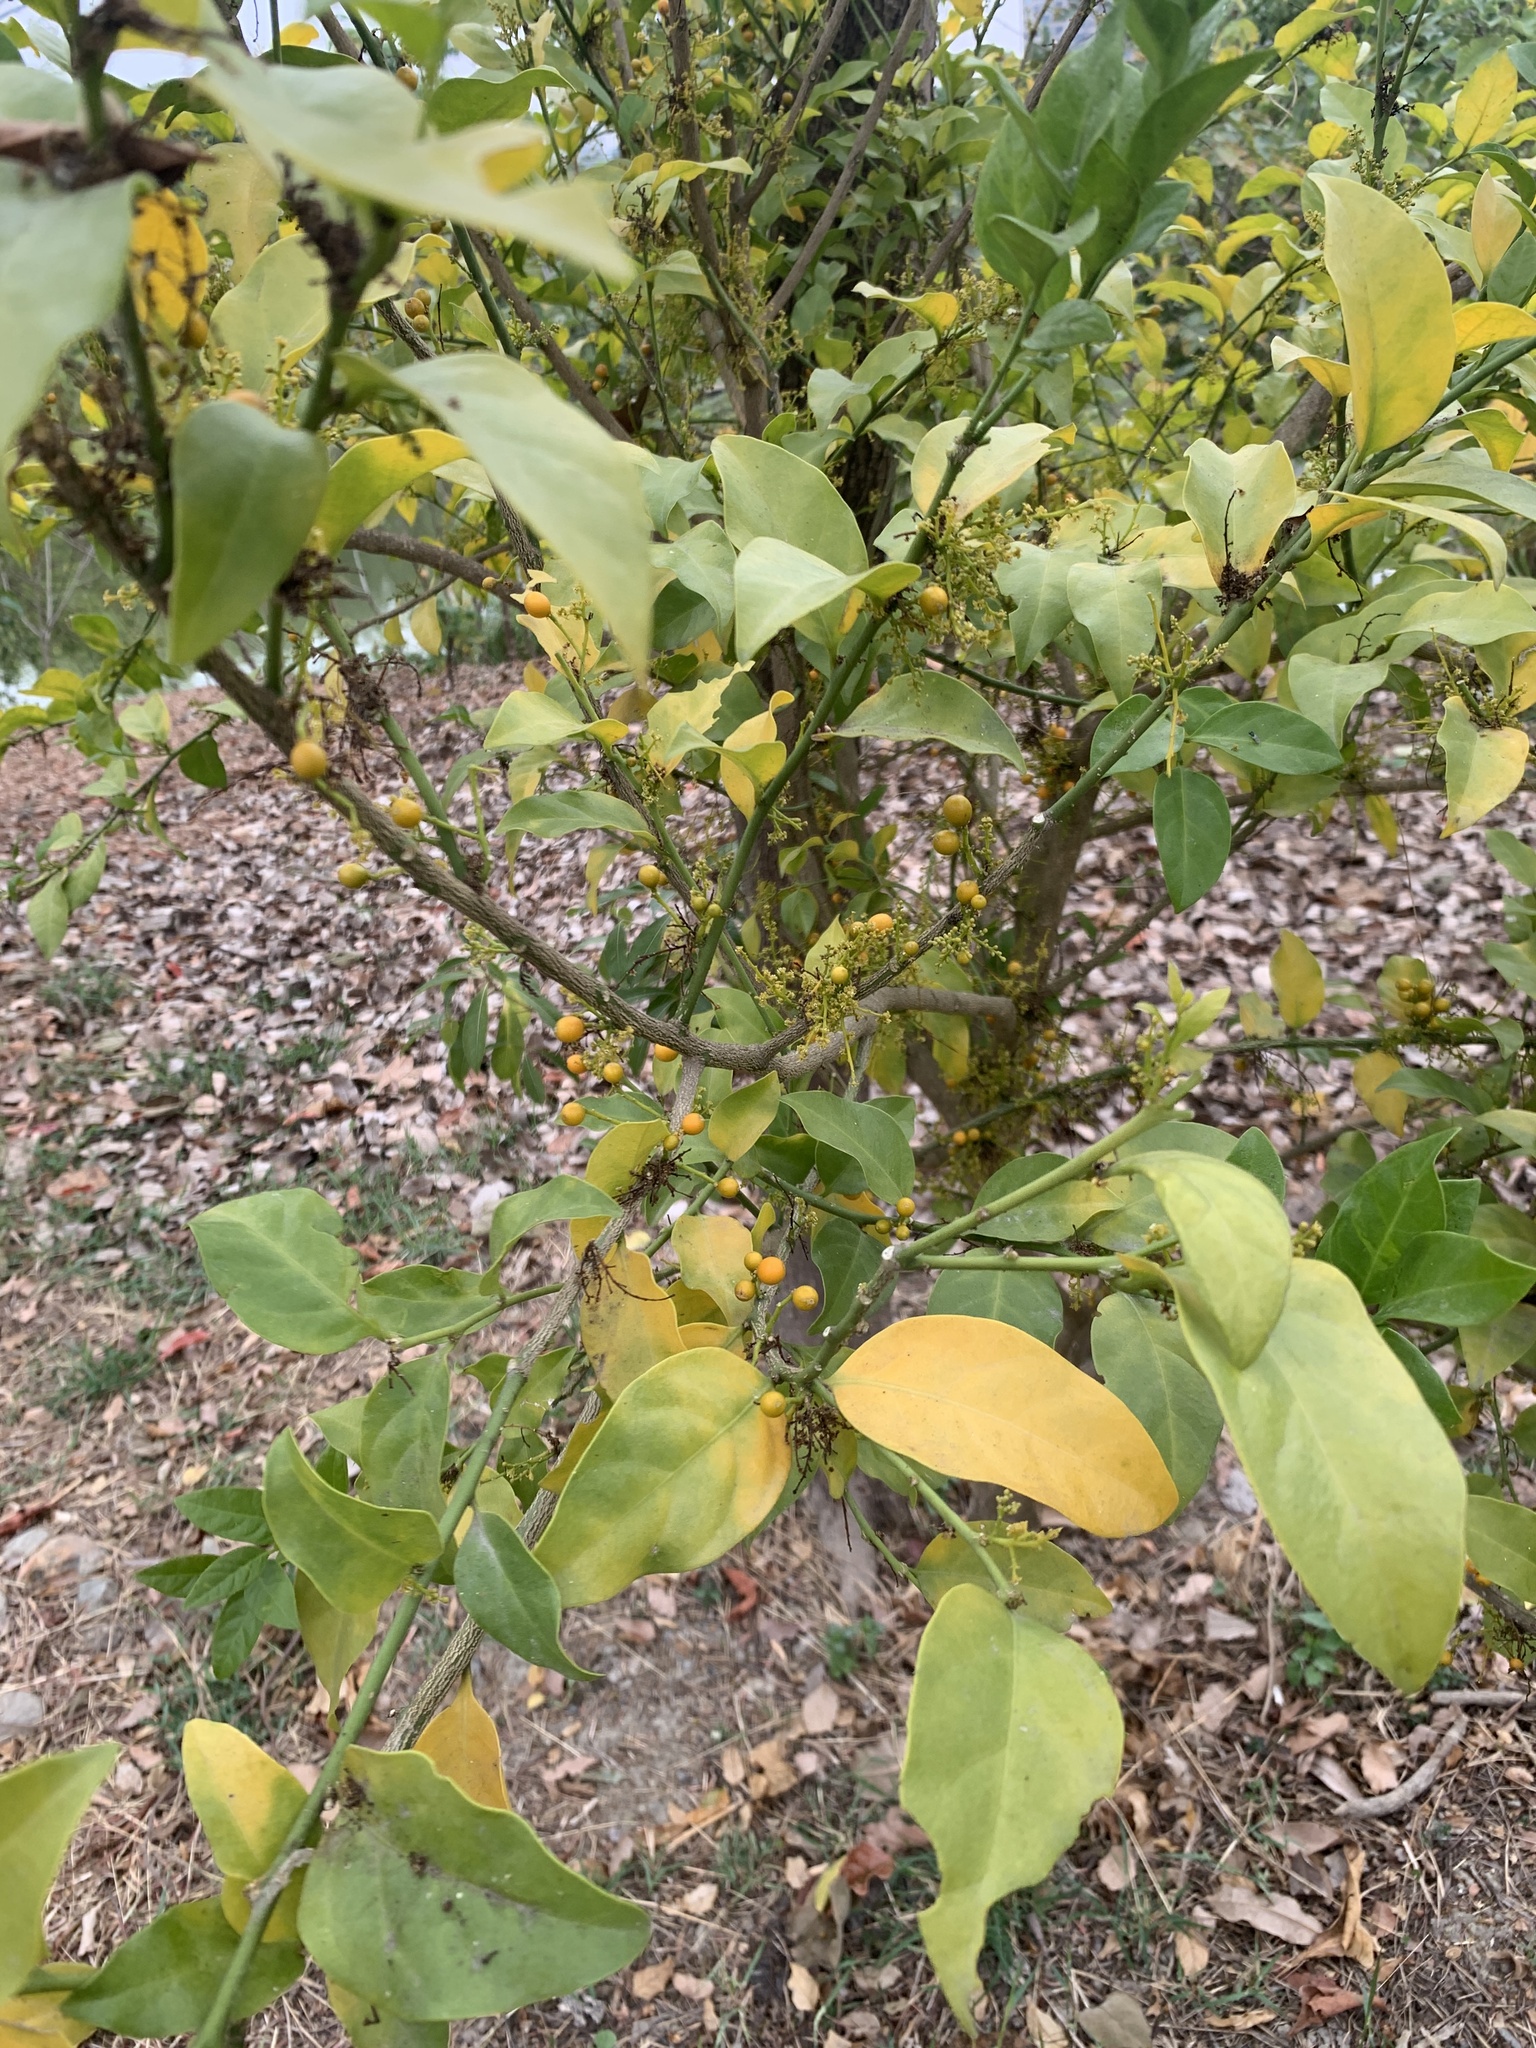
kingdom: Plantae
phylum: Tracheophyta
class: Magnoliopsida
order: Santalales
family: Opiliaceae
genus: Champereia
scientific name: Champereia manillana
